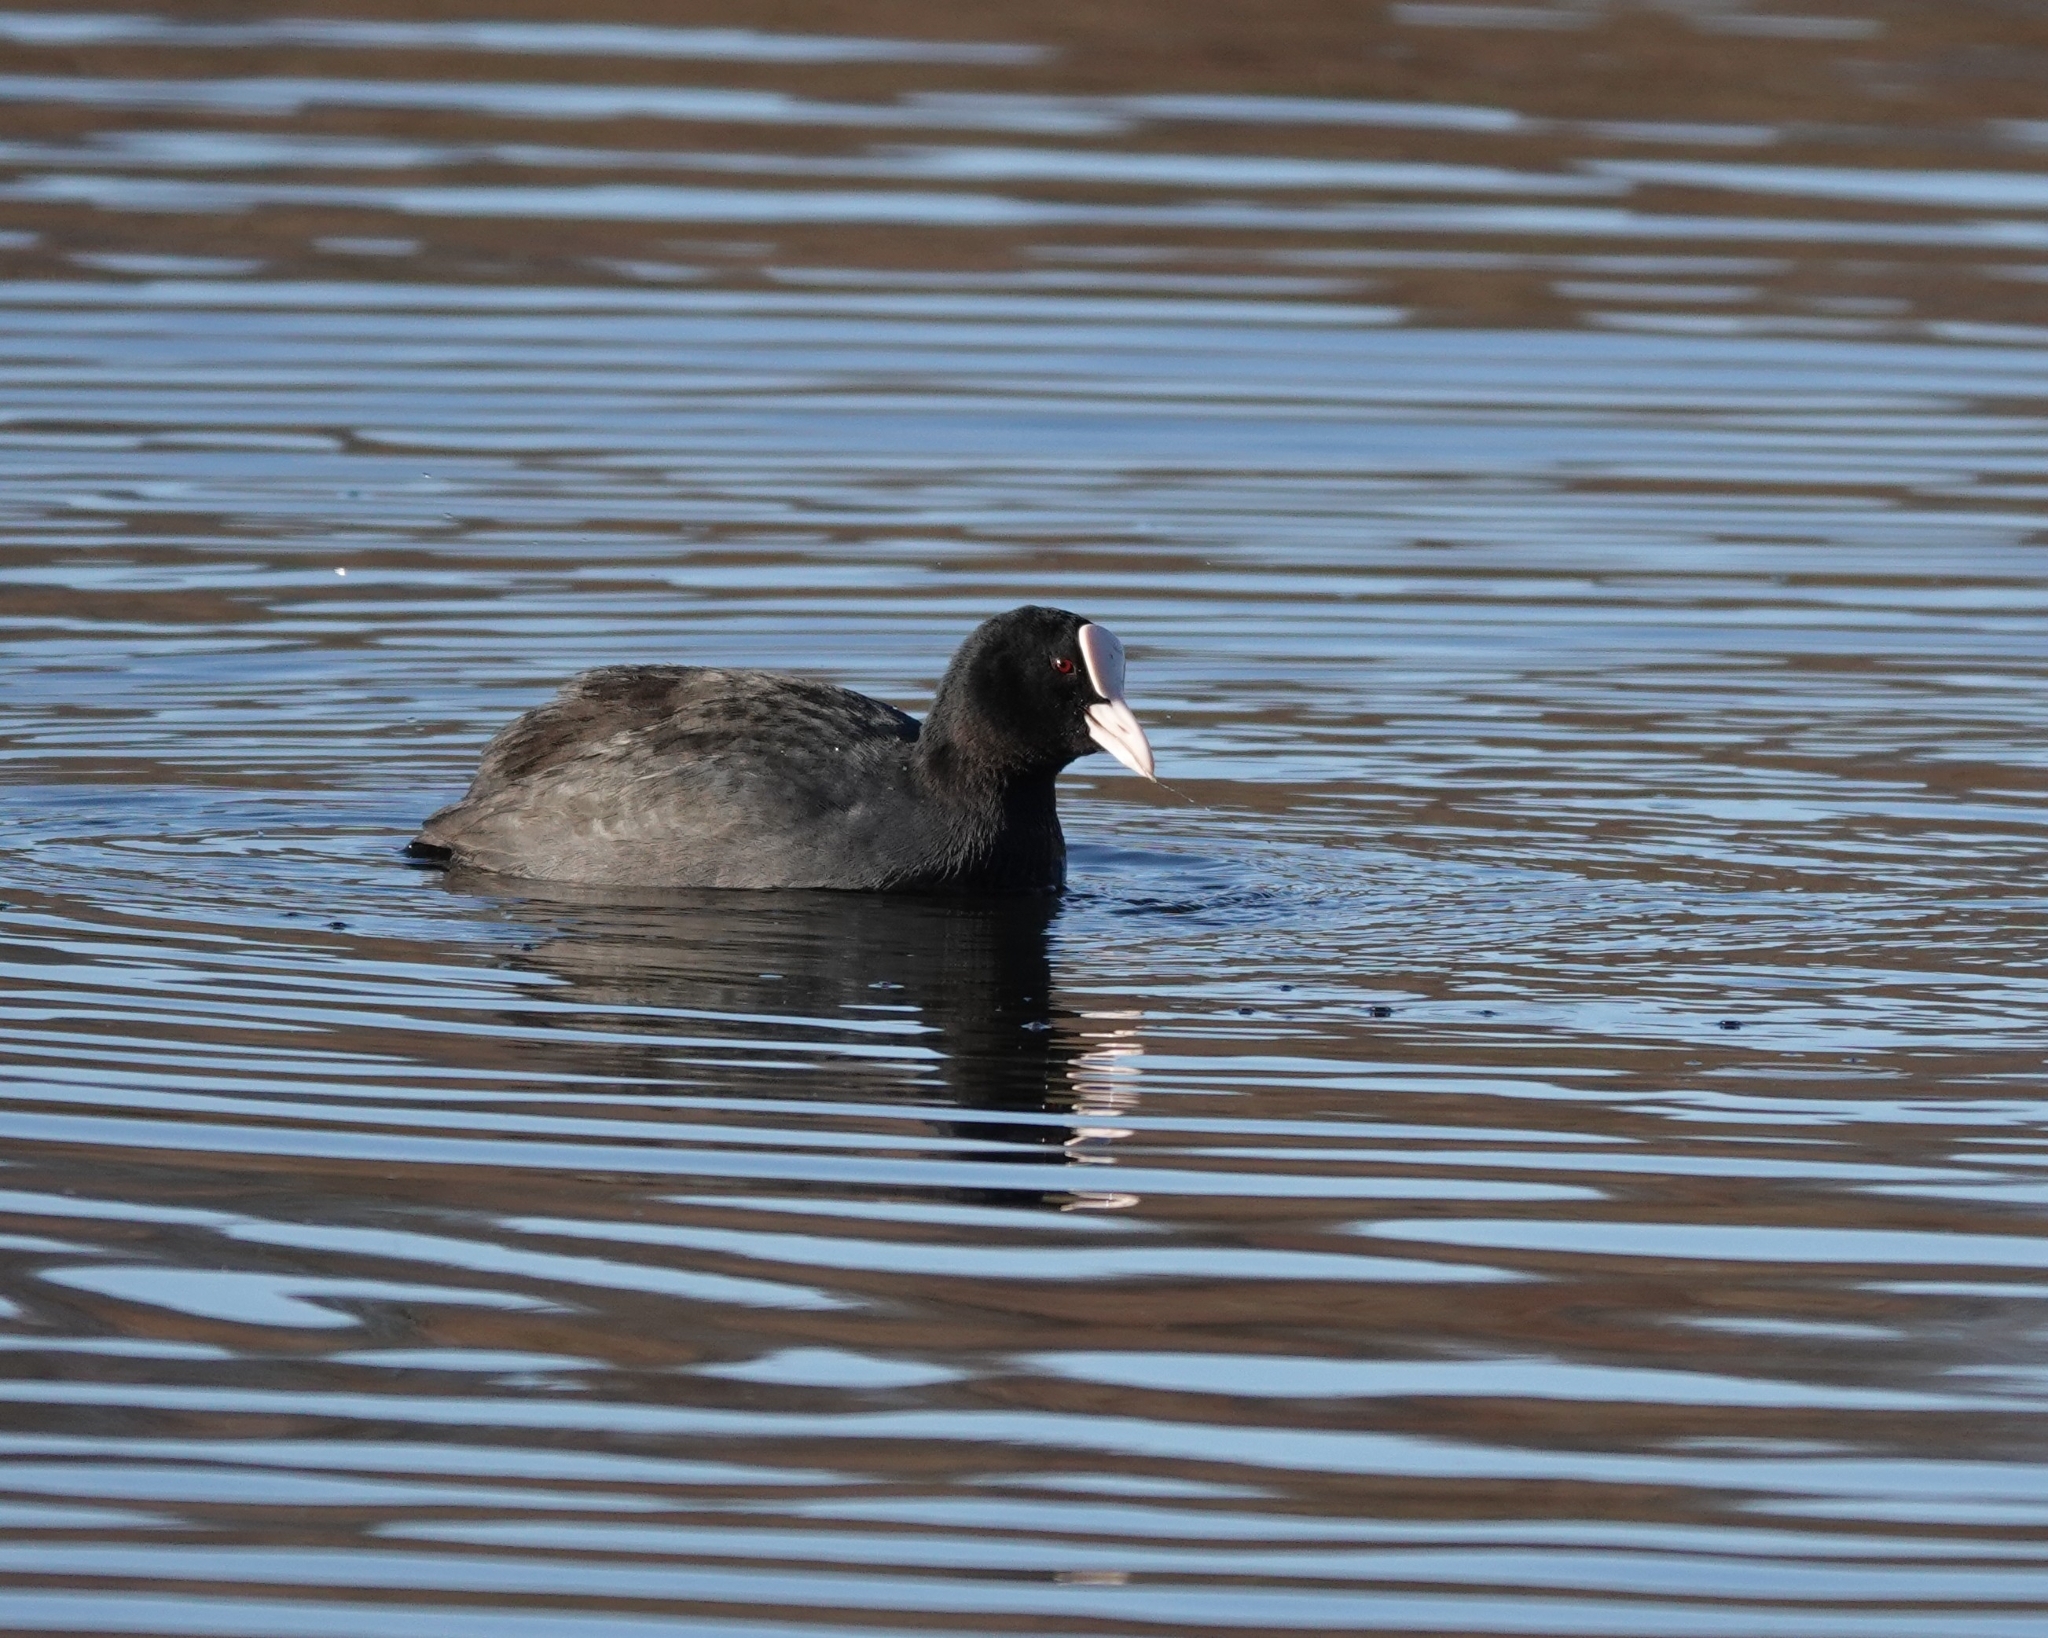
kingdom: Animalia
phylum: Chordata
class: Aves
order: Gruiformes
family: Rallidae
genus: Fulica
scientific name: Fulica atra
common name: Eurasian coot
